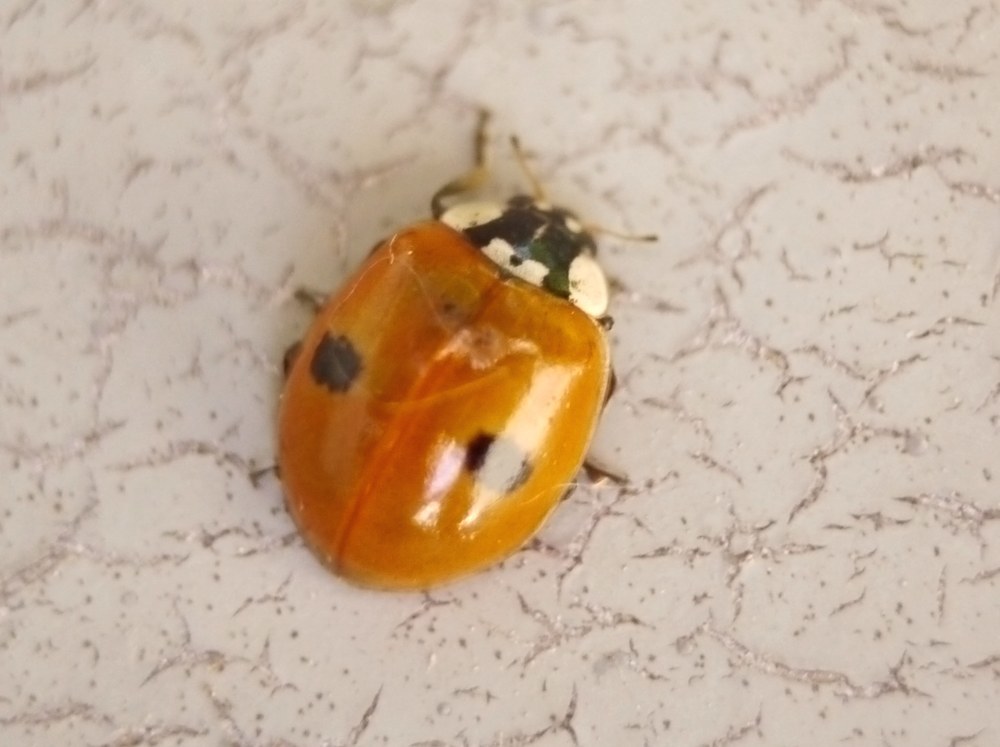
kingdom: Animalia
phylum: Arthropoda
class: Insecta
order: Coleoptera
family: Coccinellidae
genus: Adalia
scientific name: Adalia bipunctata
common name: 2-spot ladybird
